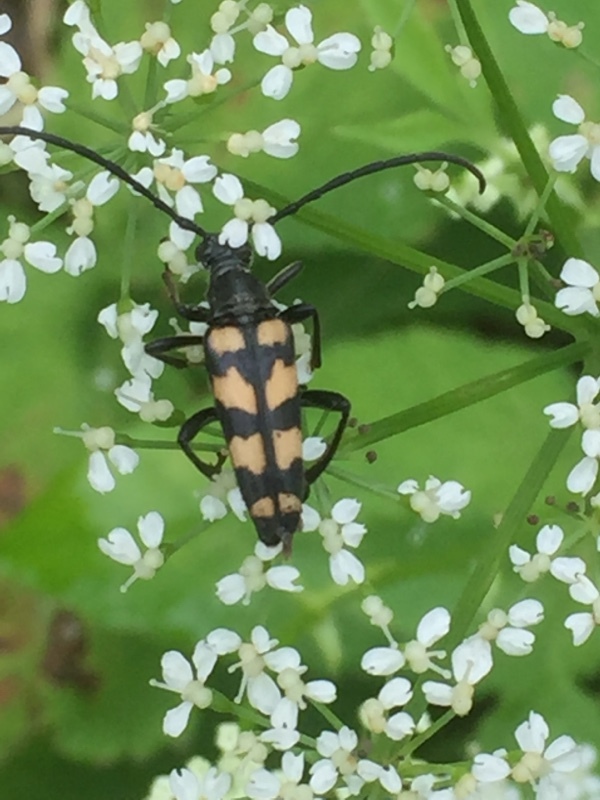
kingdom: Animalia
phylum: Arthropoda
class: Insecta
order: Coleoptera
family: Cerambycidae
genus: Leptura
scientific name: Leptura quadrifasciata
